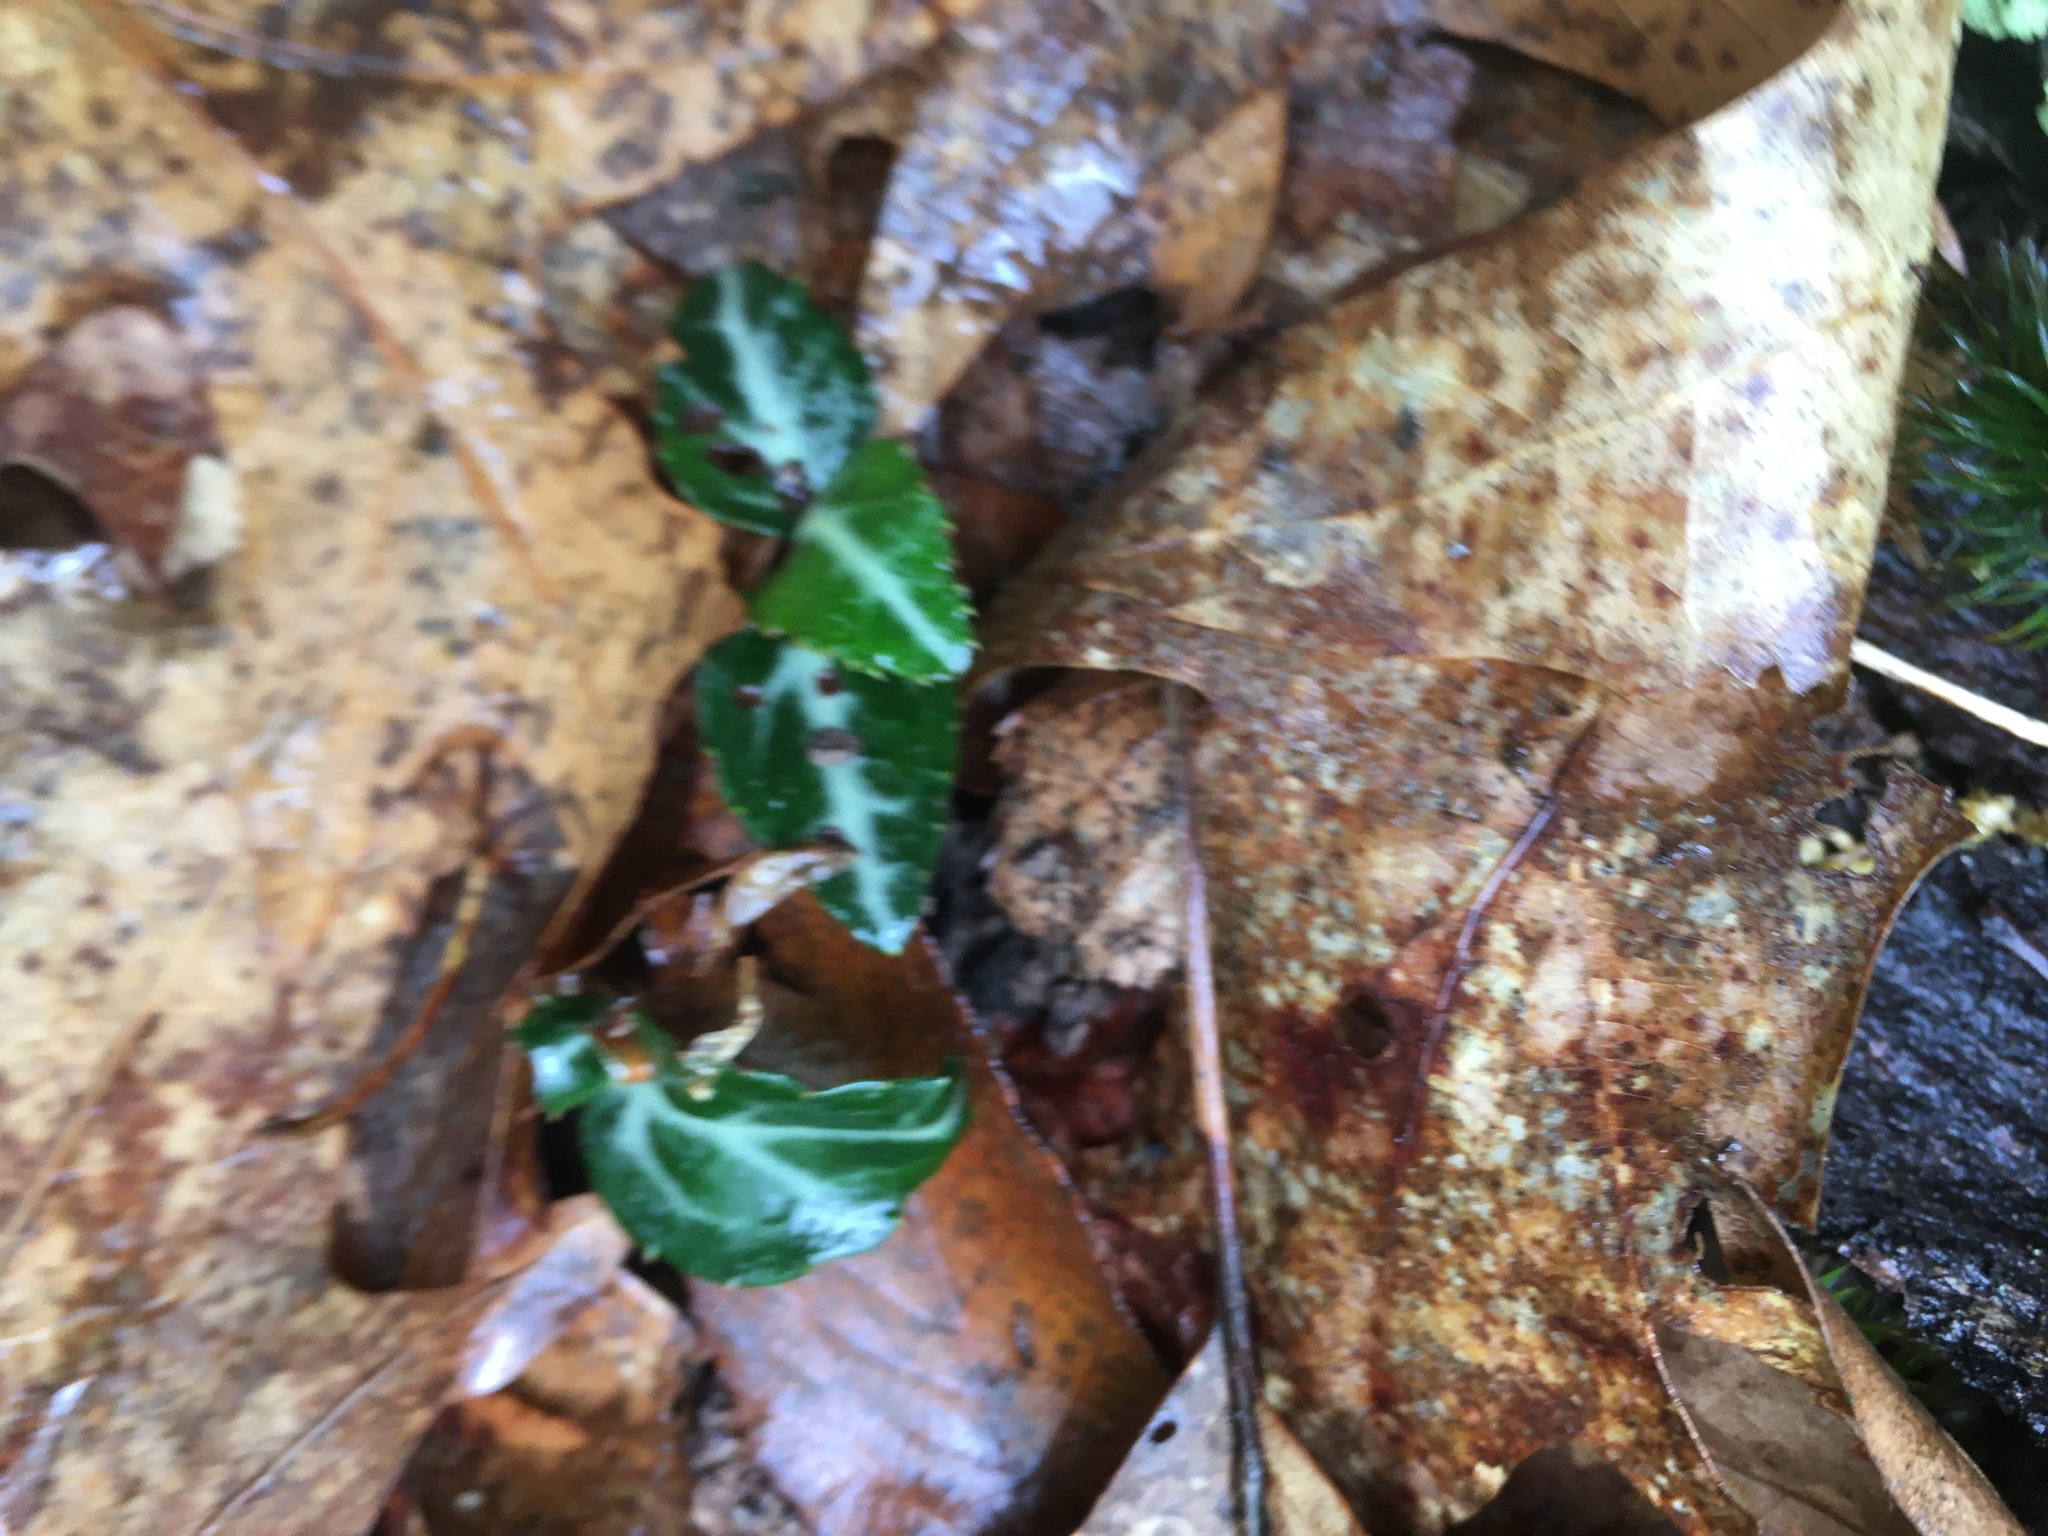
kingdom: Plantae
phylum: Tracheophyta
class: Magnoliopsida
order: Ericales
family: Ericaceae
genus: Chimaphila
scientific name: Chimaphila maculata
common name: Spotted pipsissewa
